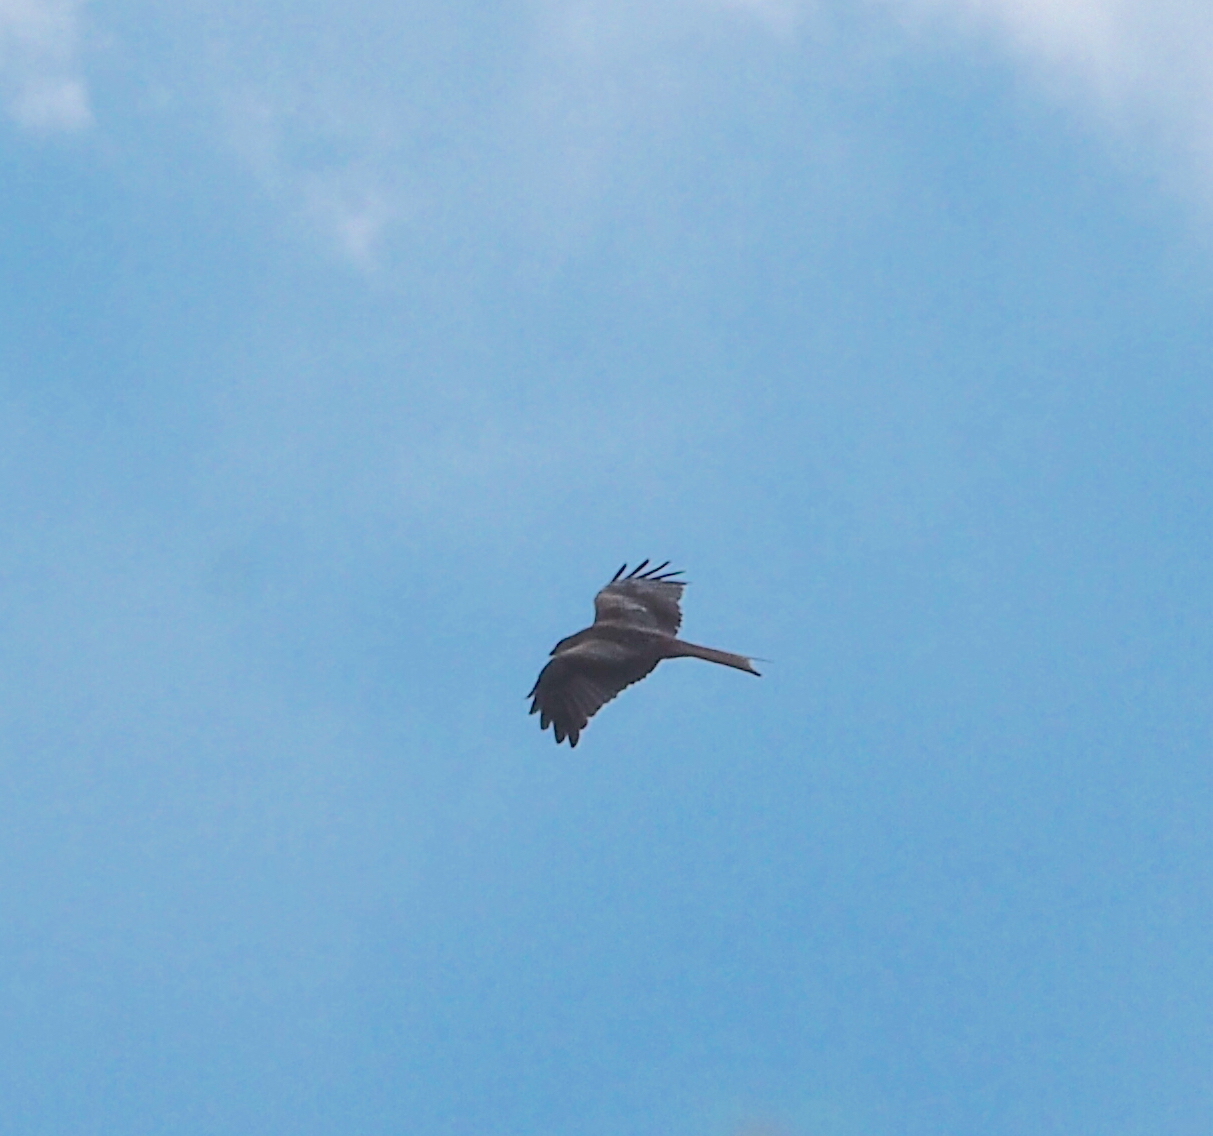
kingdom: Animalia
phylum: Chordata
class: Aves
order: Accipitriformes
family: Accipitridae
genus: Milvus
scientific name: Milvus milvus
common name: Red kite
